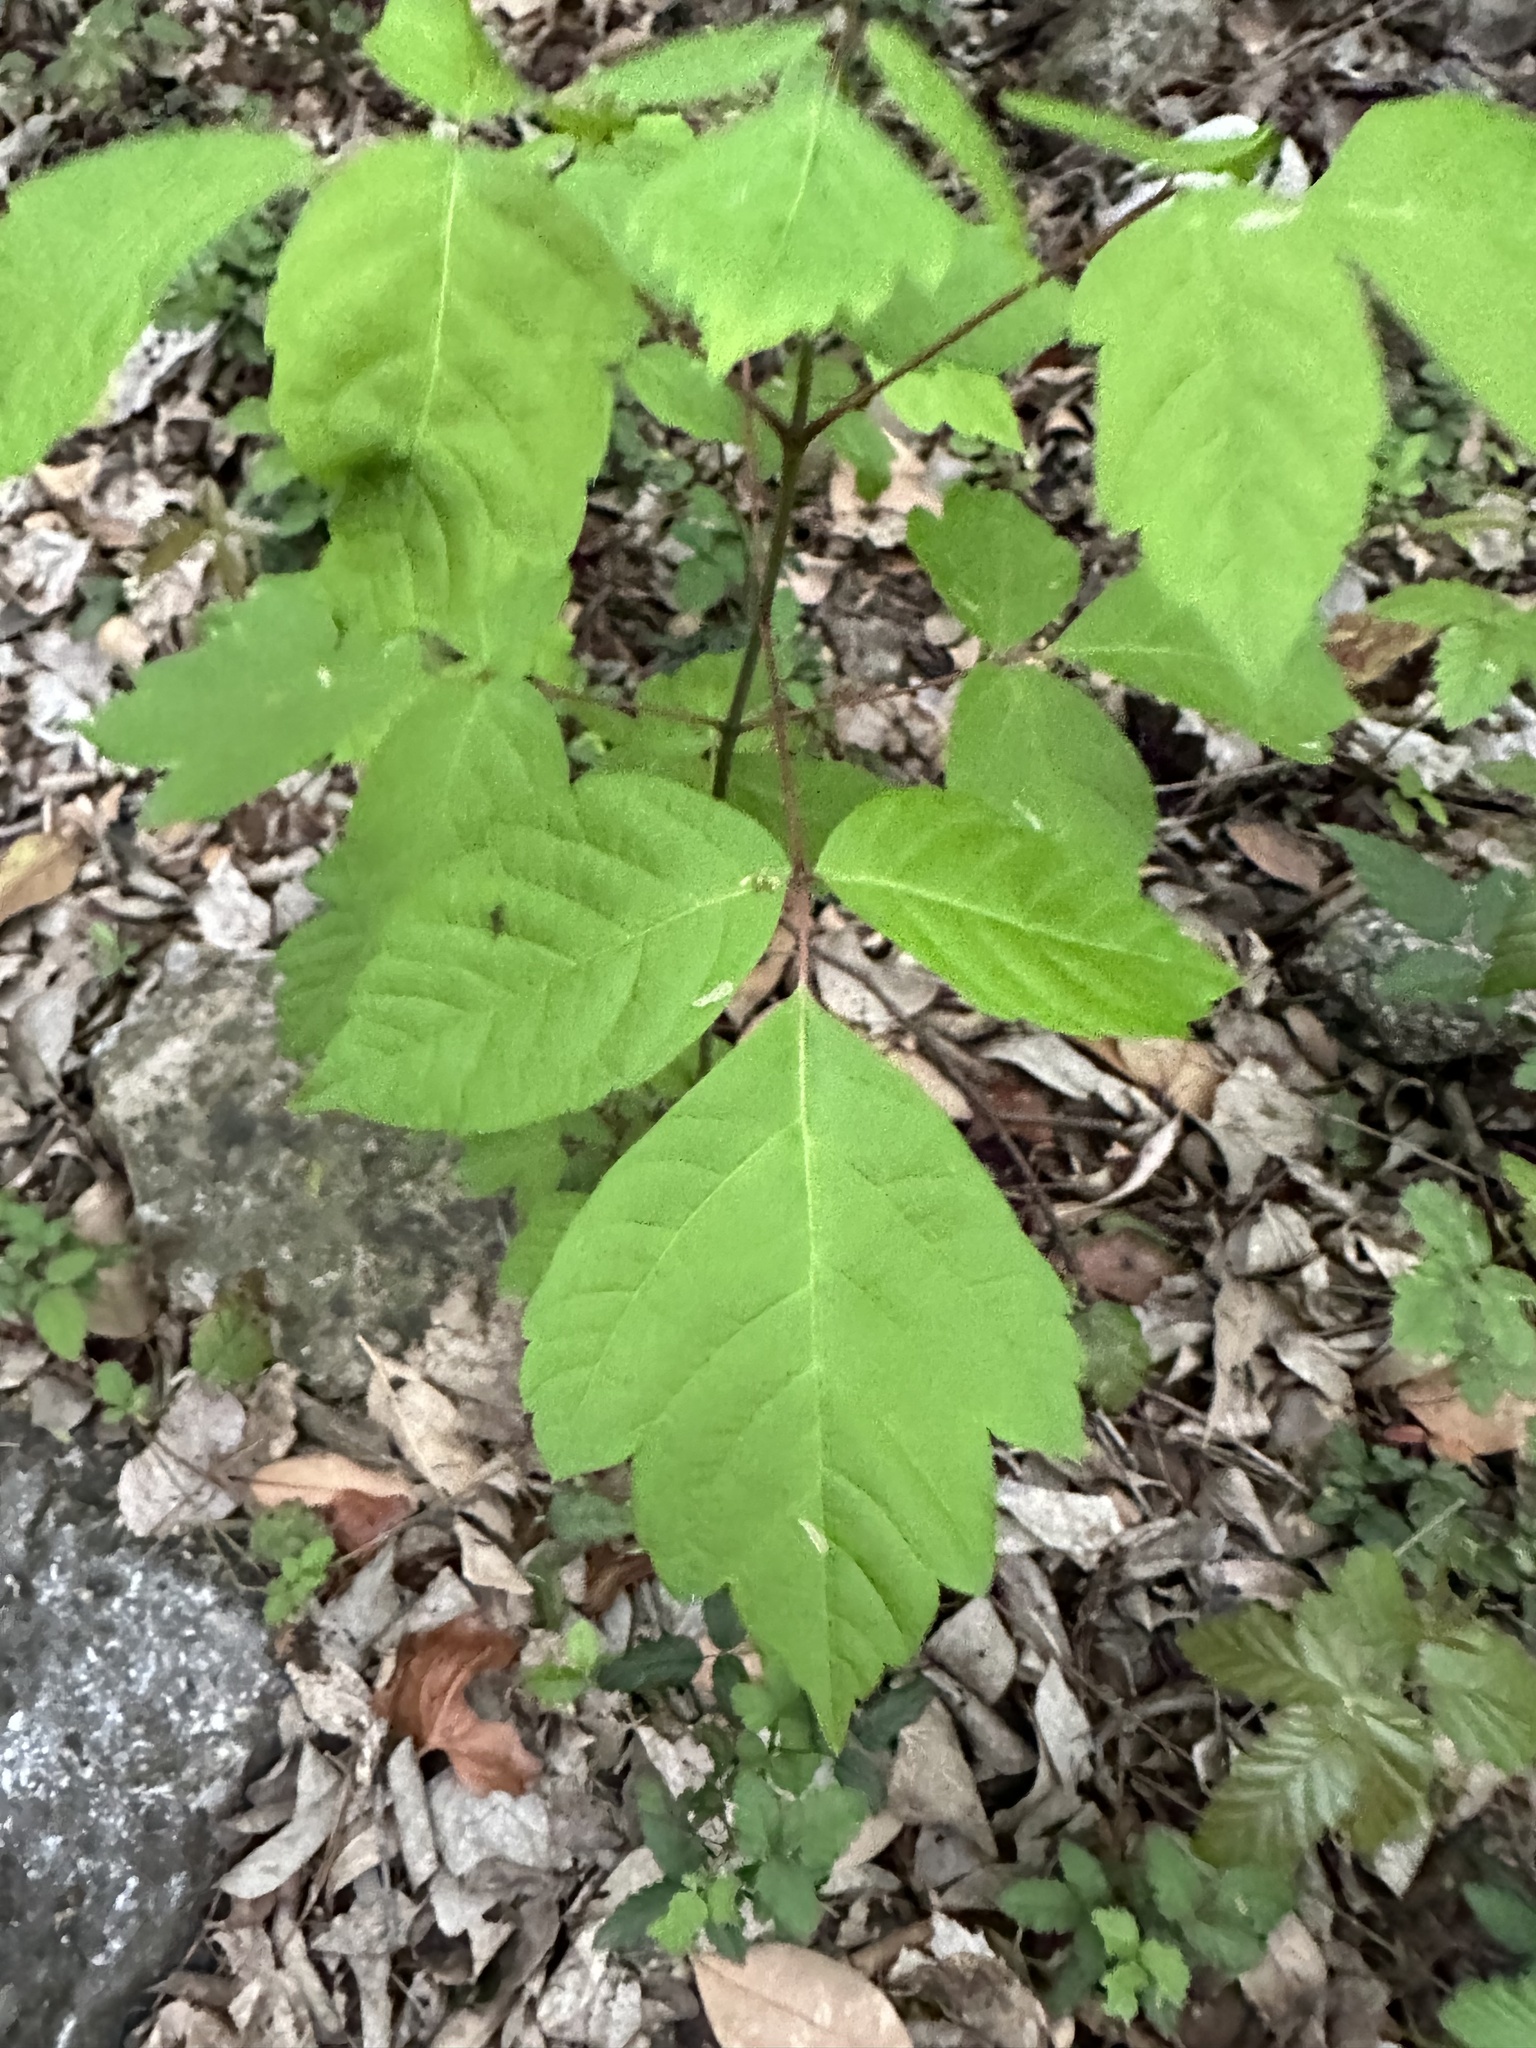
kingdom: Plantae
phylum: Tracheophyta
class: Magnoliopsida
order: Sapindales
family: Sapindaceae
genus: Acer
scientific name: Acer negundo
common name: Ashleaf maple
